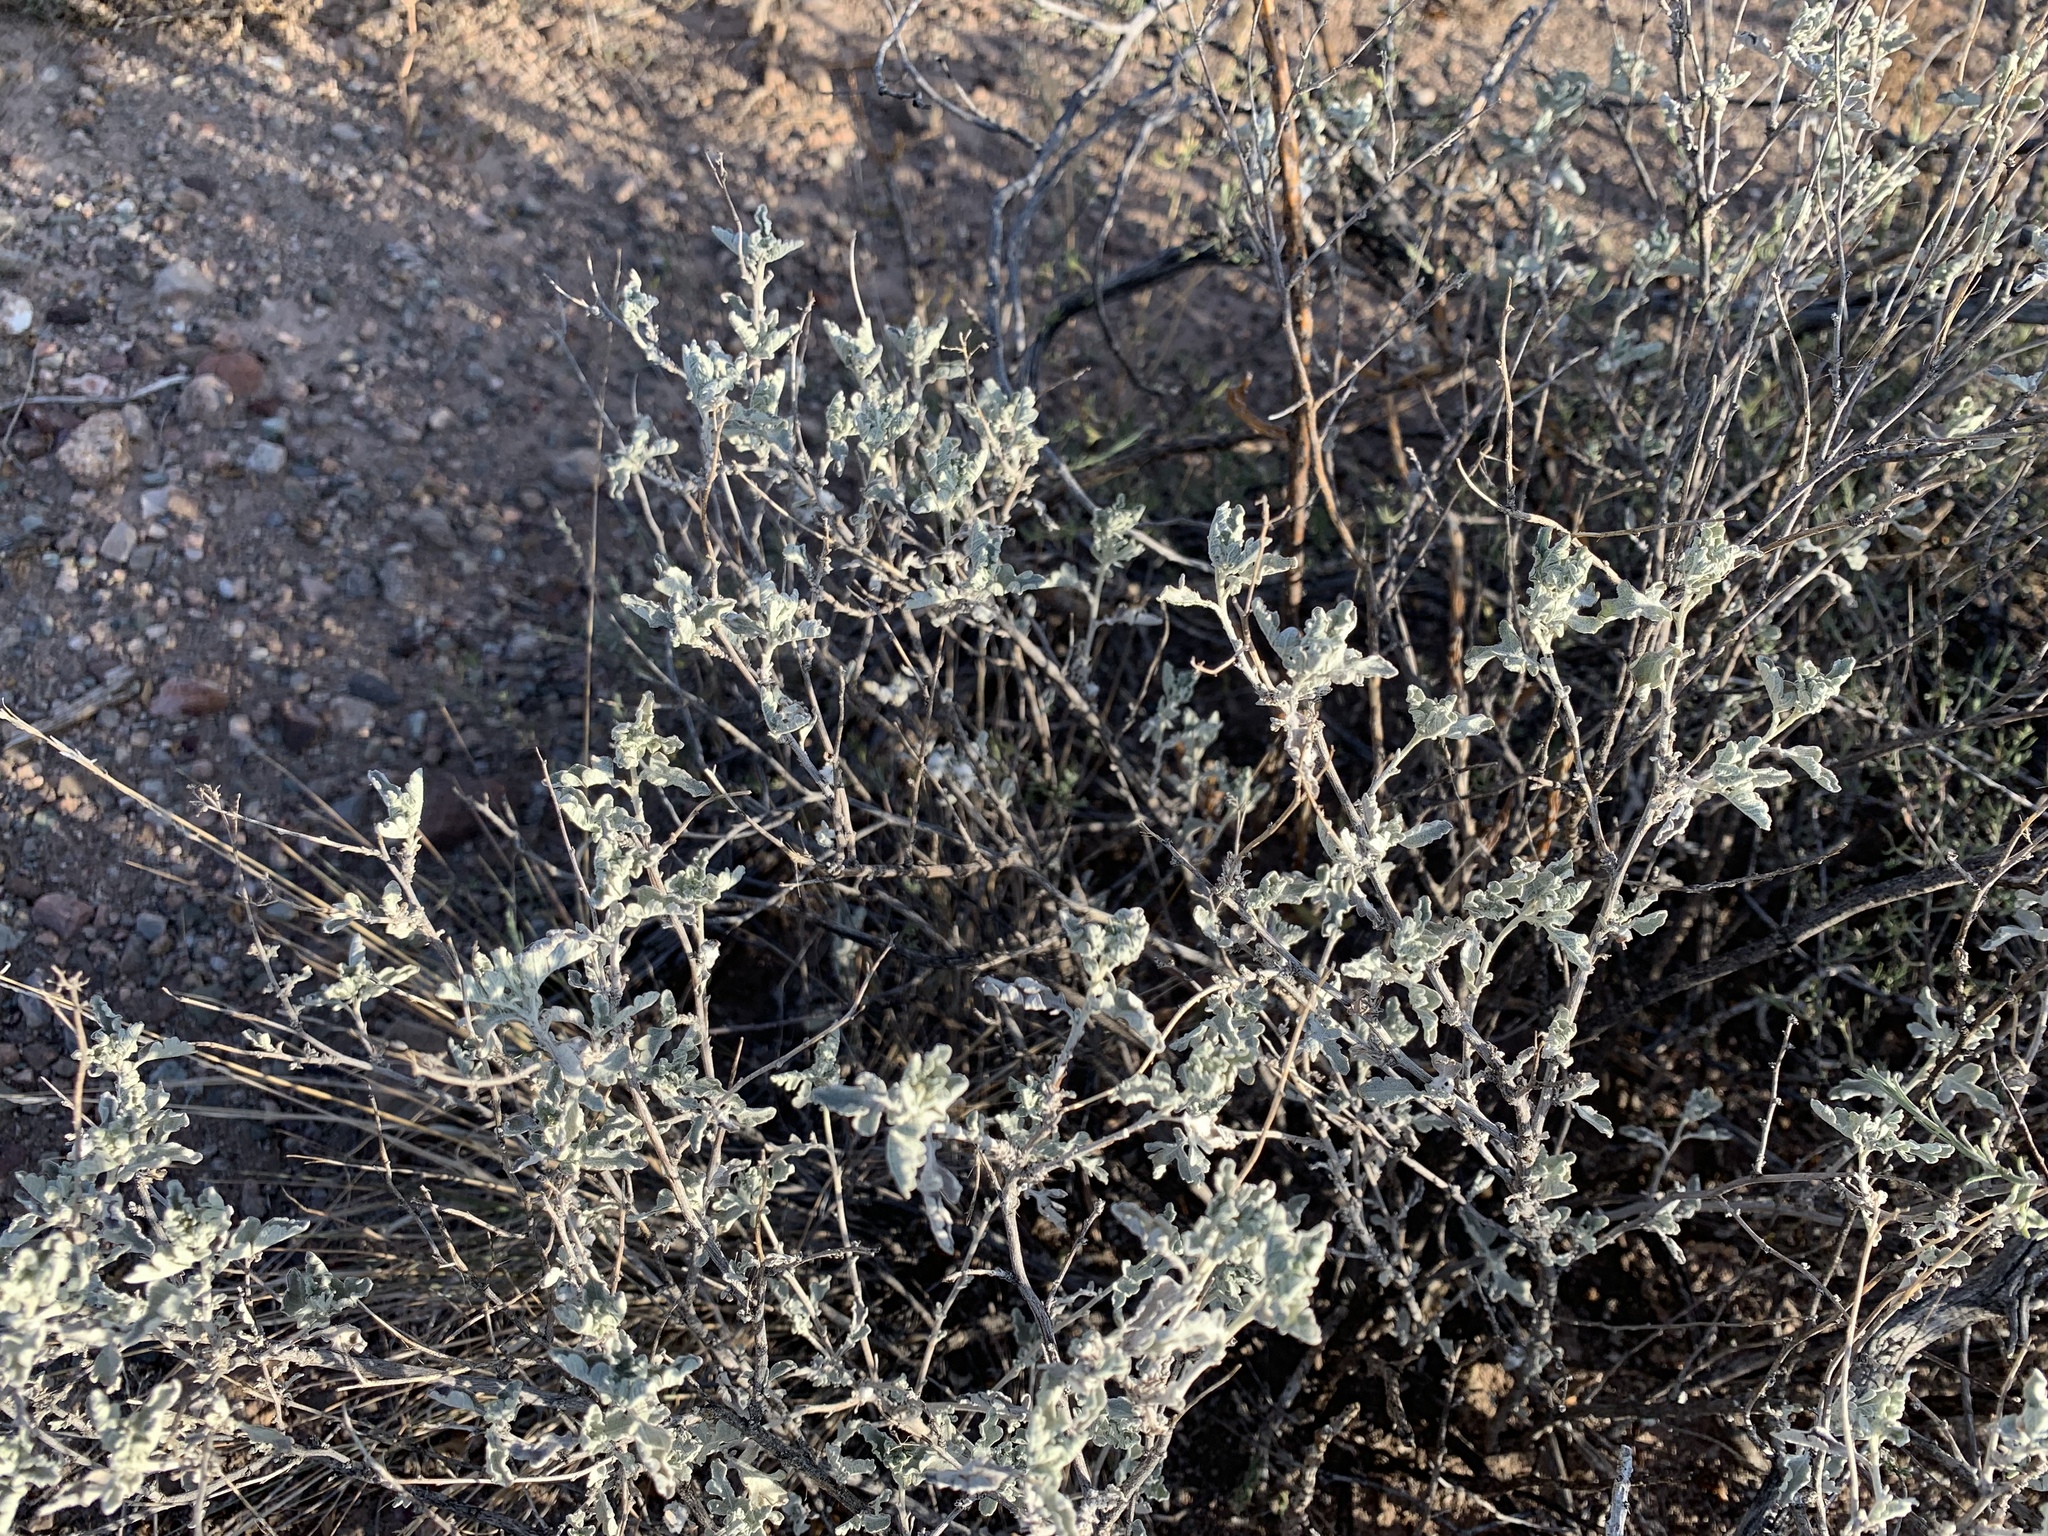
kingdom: Plantae
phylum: Tracheophyta
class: Magnoliopsida
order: Asterales
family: Asteraceae
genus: Parthenium
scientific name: Parthenium incanum
